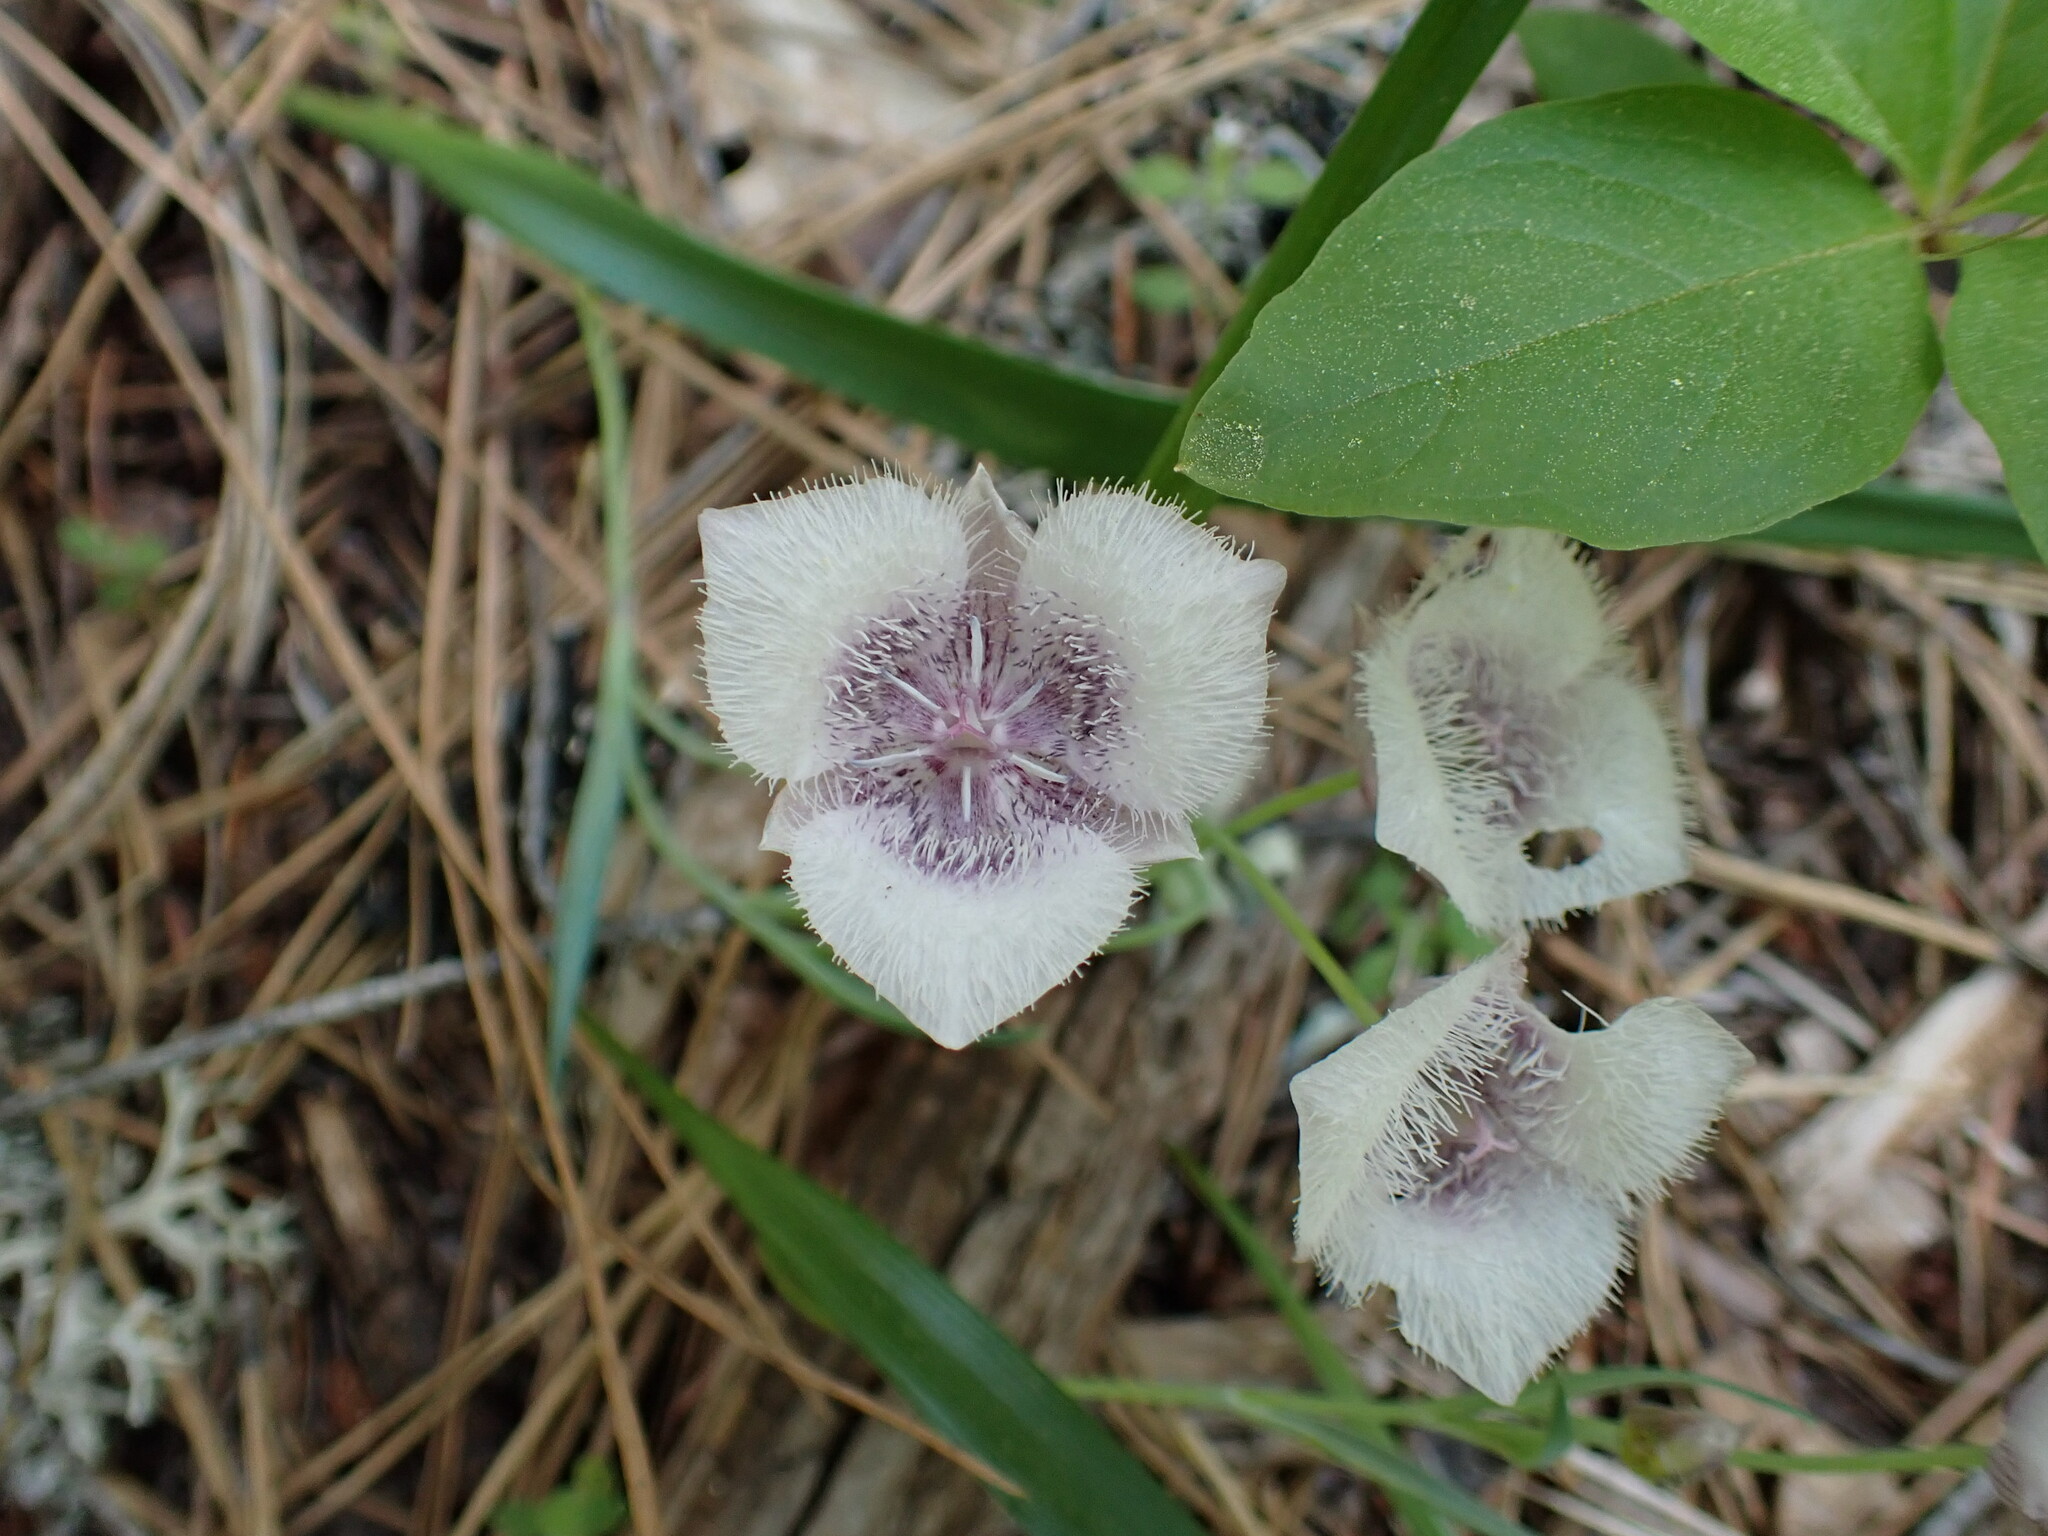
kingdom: Plantae
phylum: Tracheophyta
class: Liliopsida
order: Liliales
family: Liliaceae
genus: Calochortus
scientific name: Calochortus tolmiei
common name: Pussy-ears
